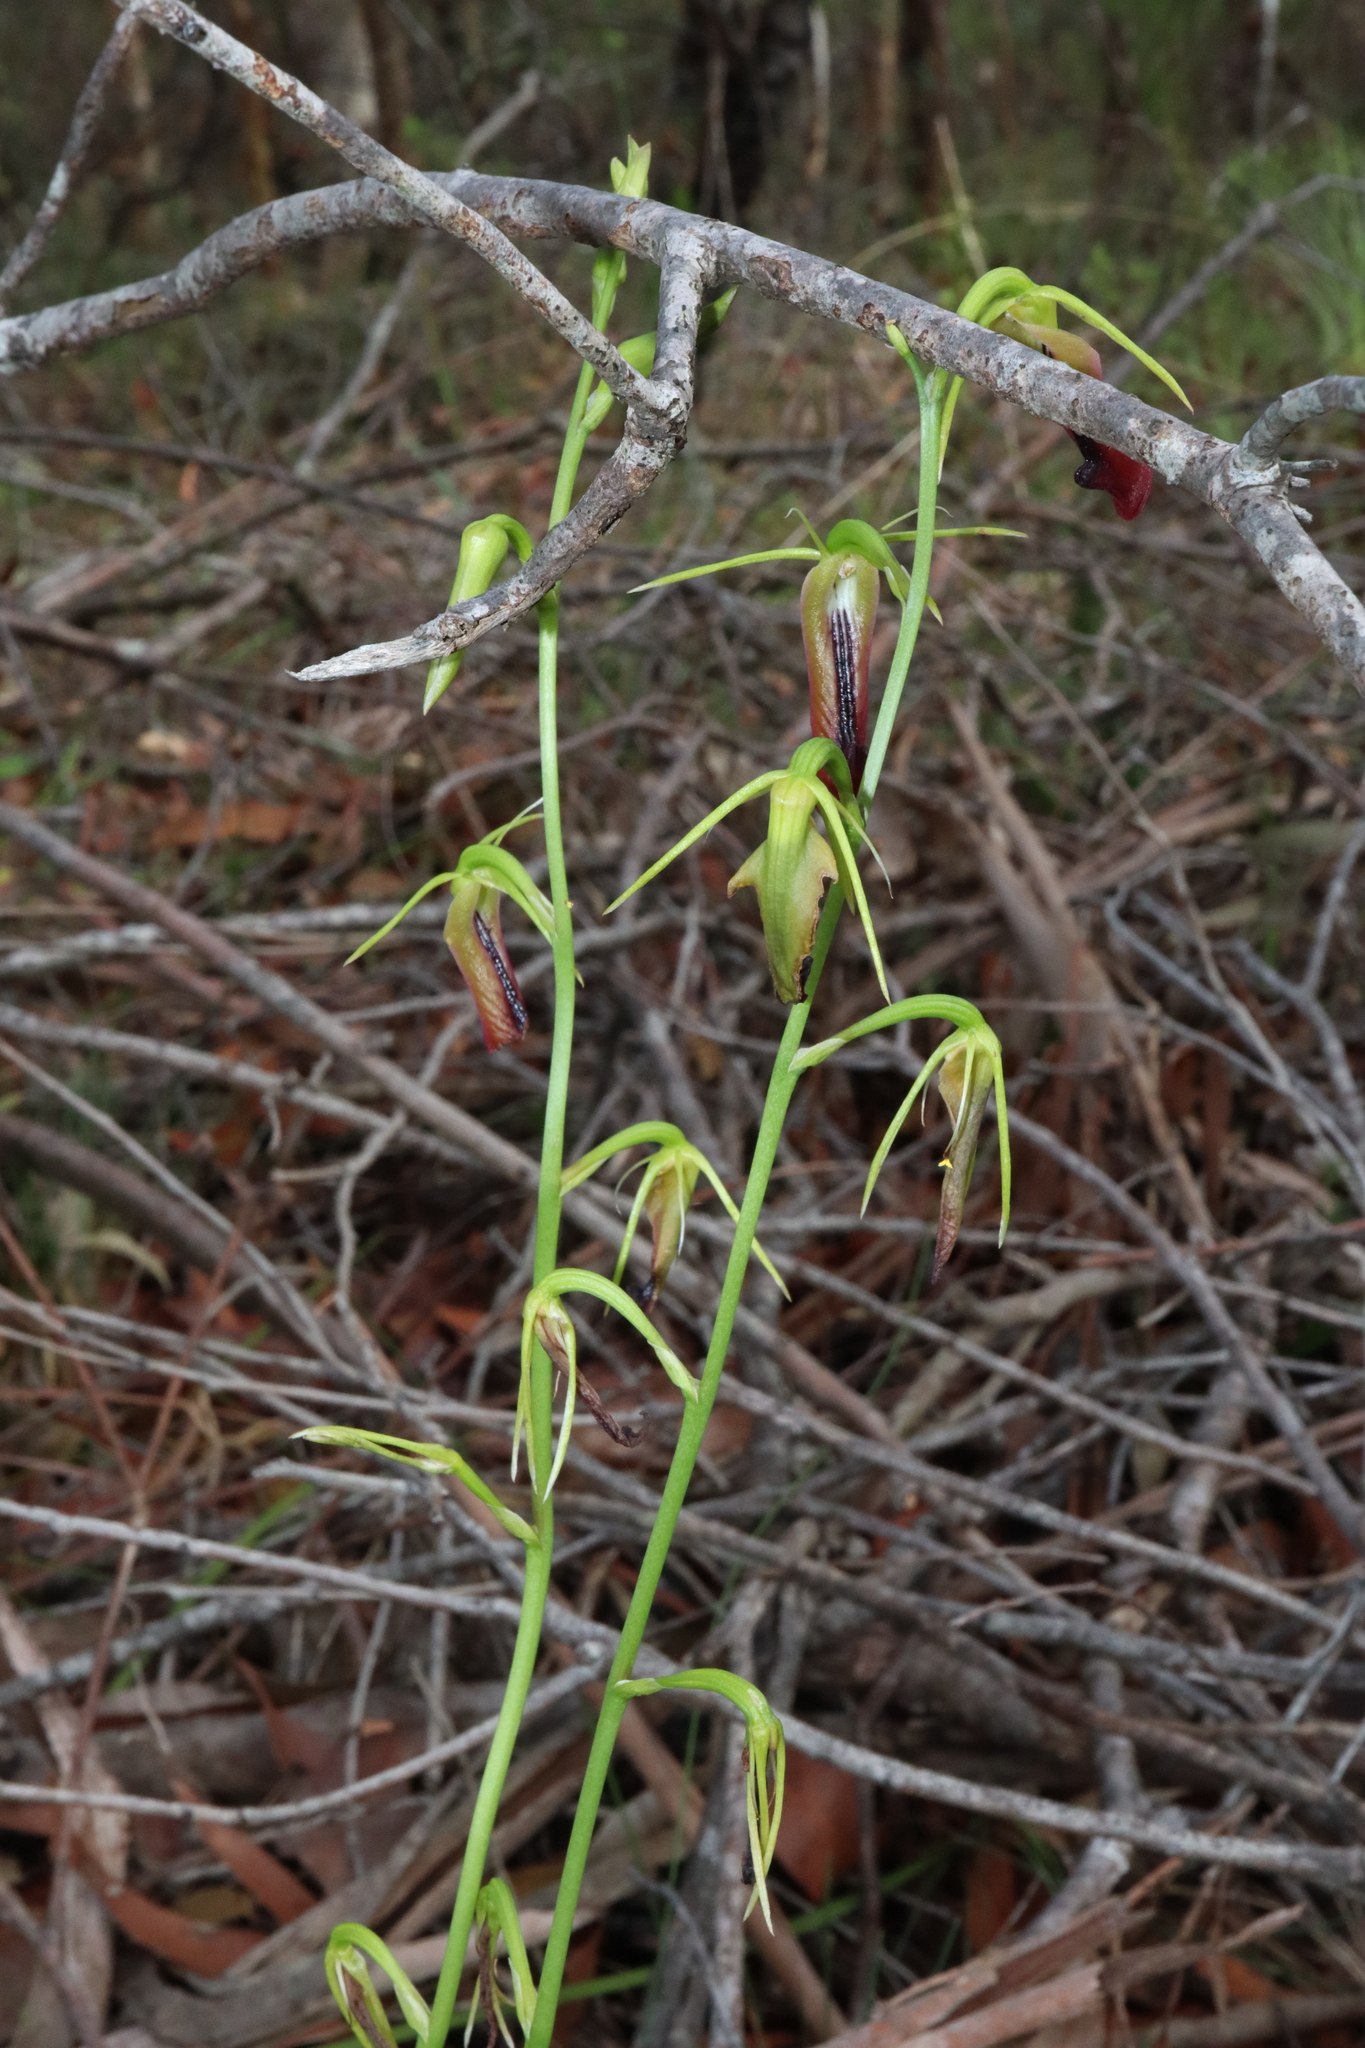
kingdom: Plantae
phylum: Tracheophyta
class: Liliopsida
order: Asparagales
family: Orchidaceae
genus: Cryptostylis
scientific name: Cryptostylis subulata
